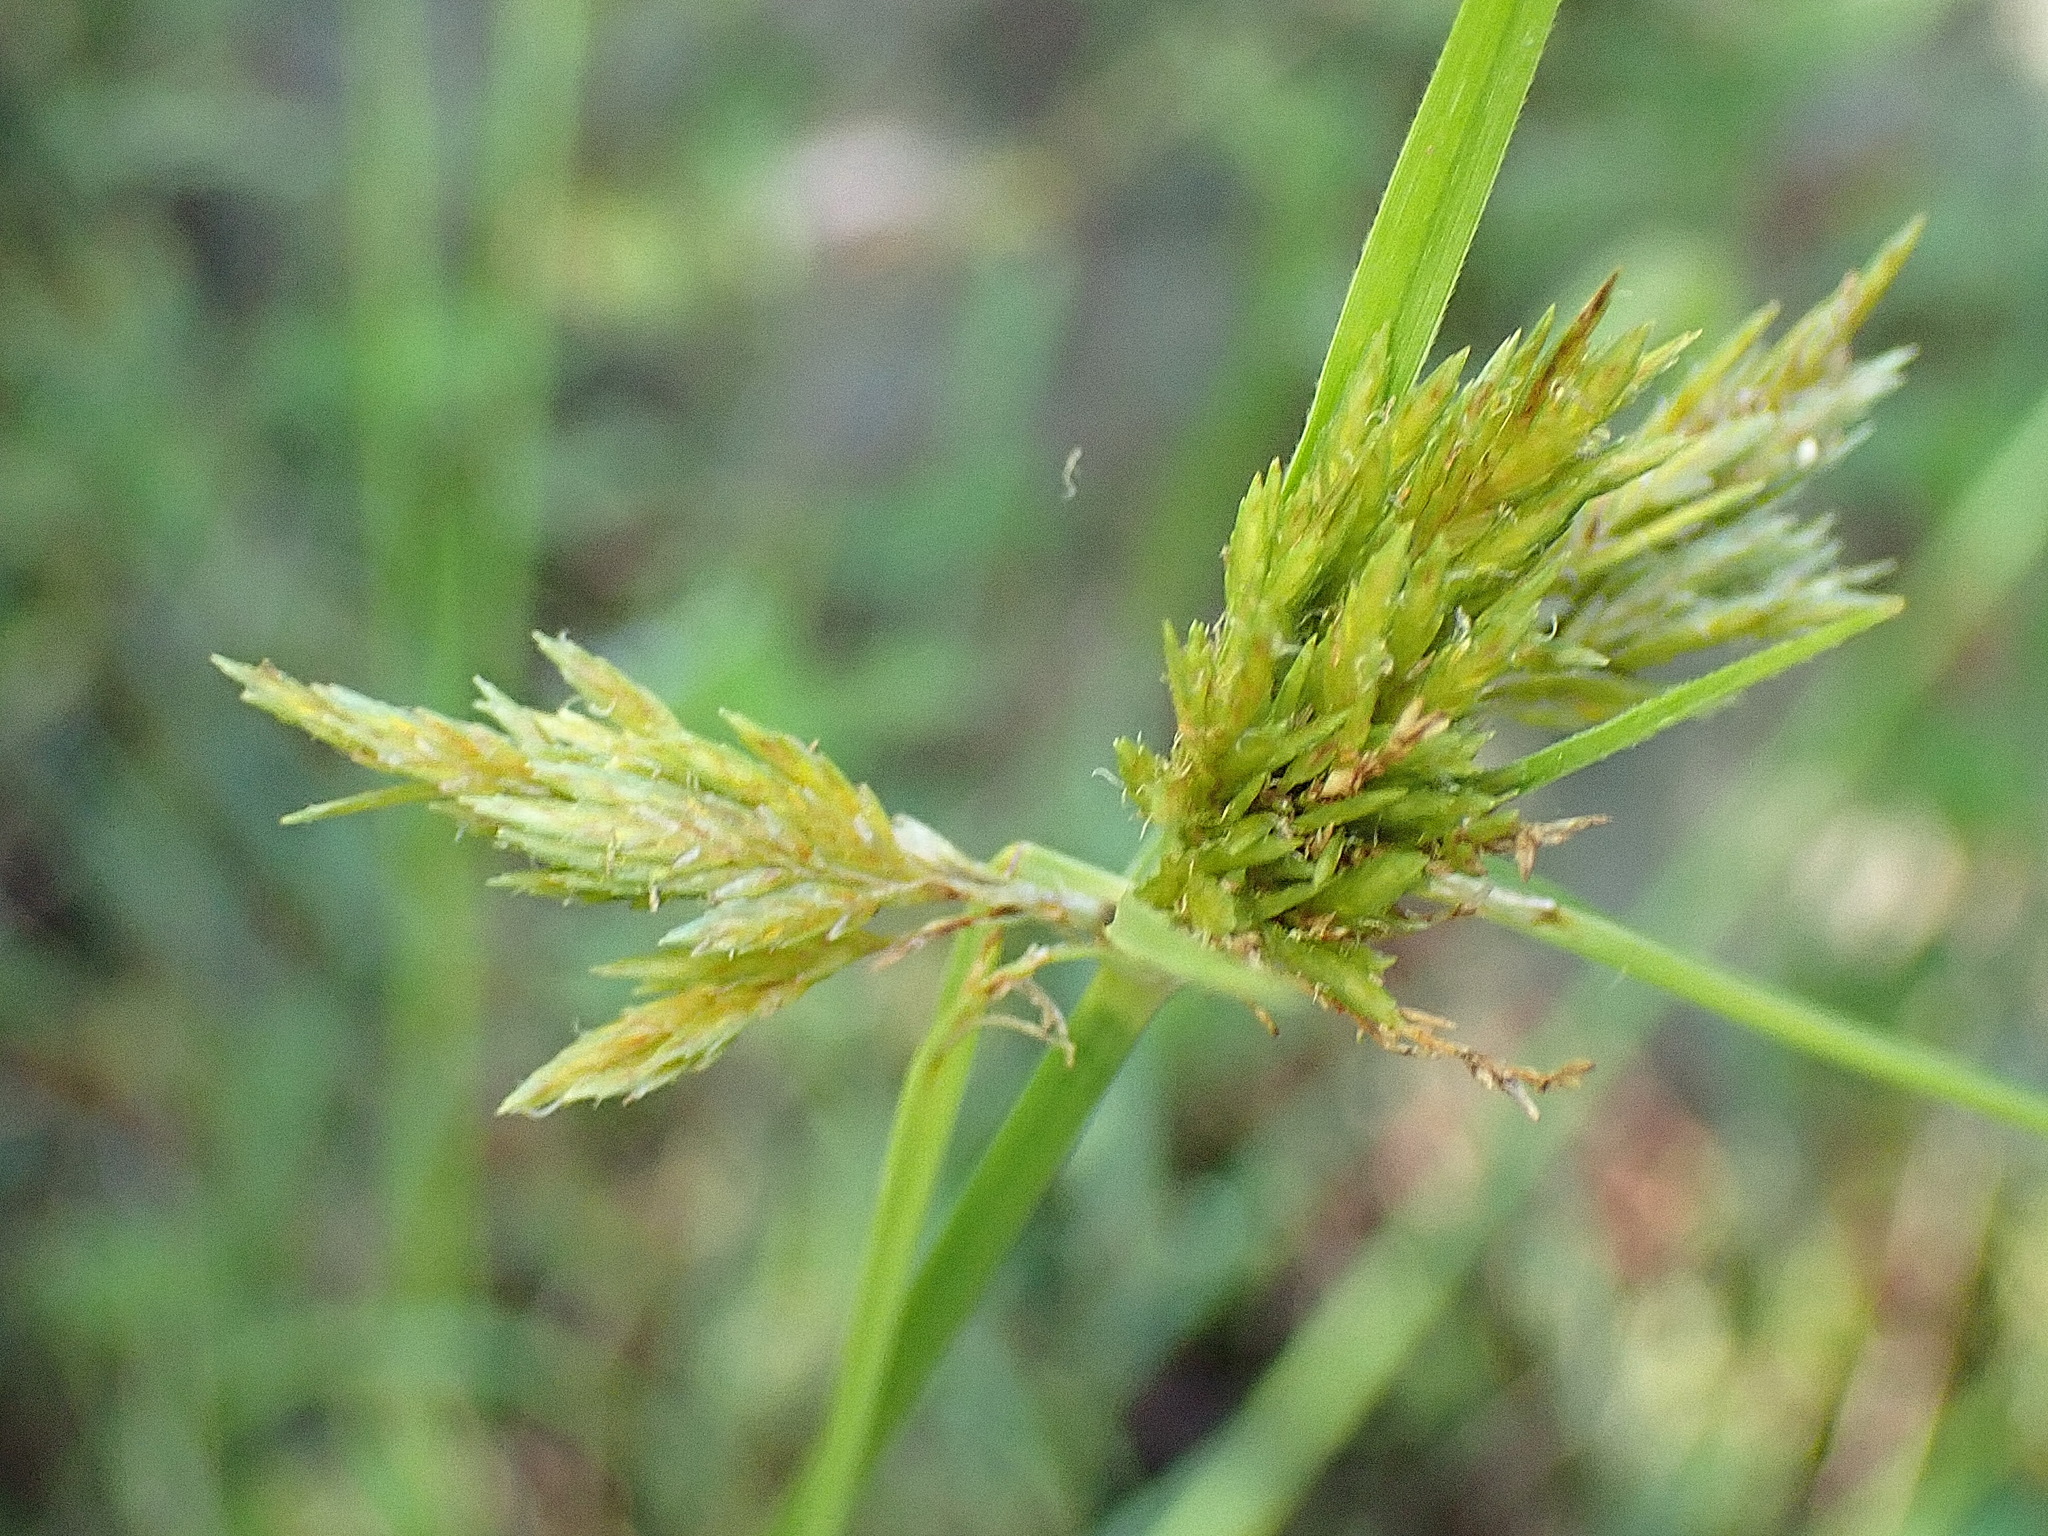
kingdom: Plantae
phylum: Tracheophyta
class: Liliopsida
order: Poales
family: Cyperaceae
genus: Cyperus
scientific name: Cyperus polystachyos
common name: Bunchy flat sedge
